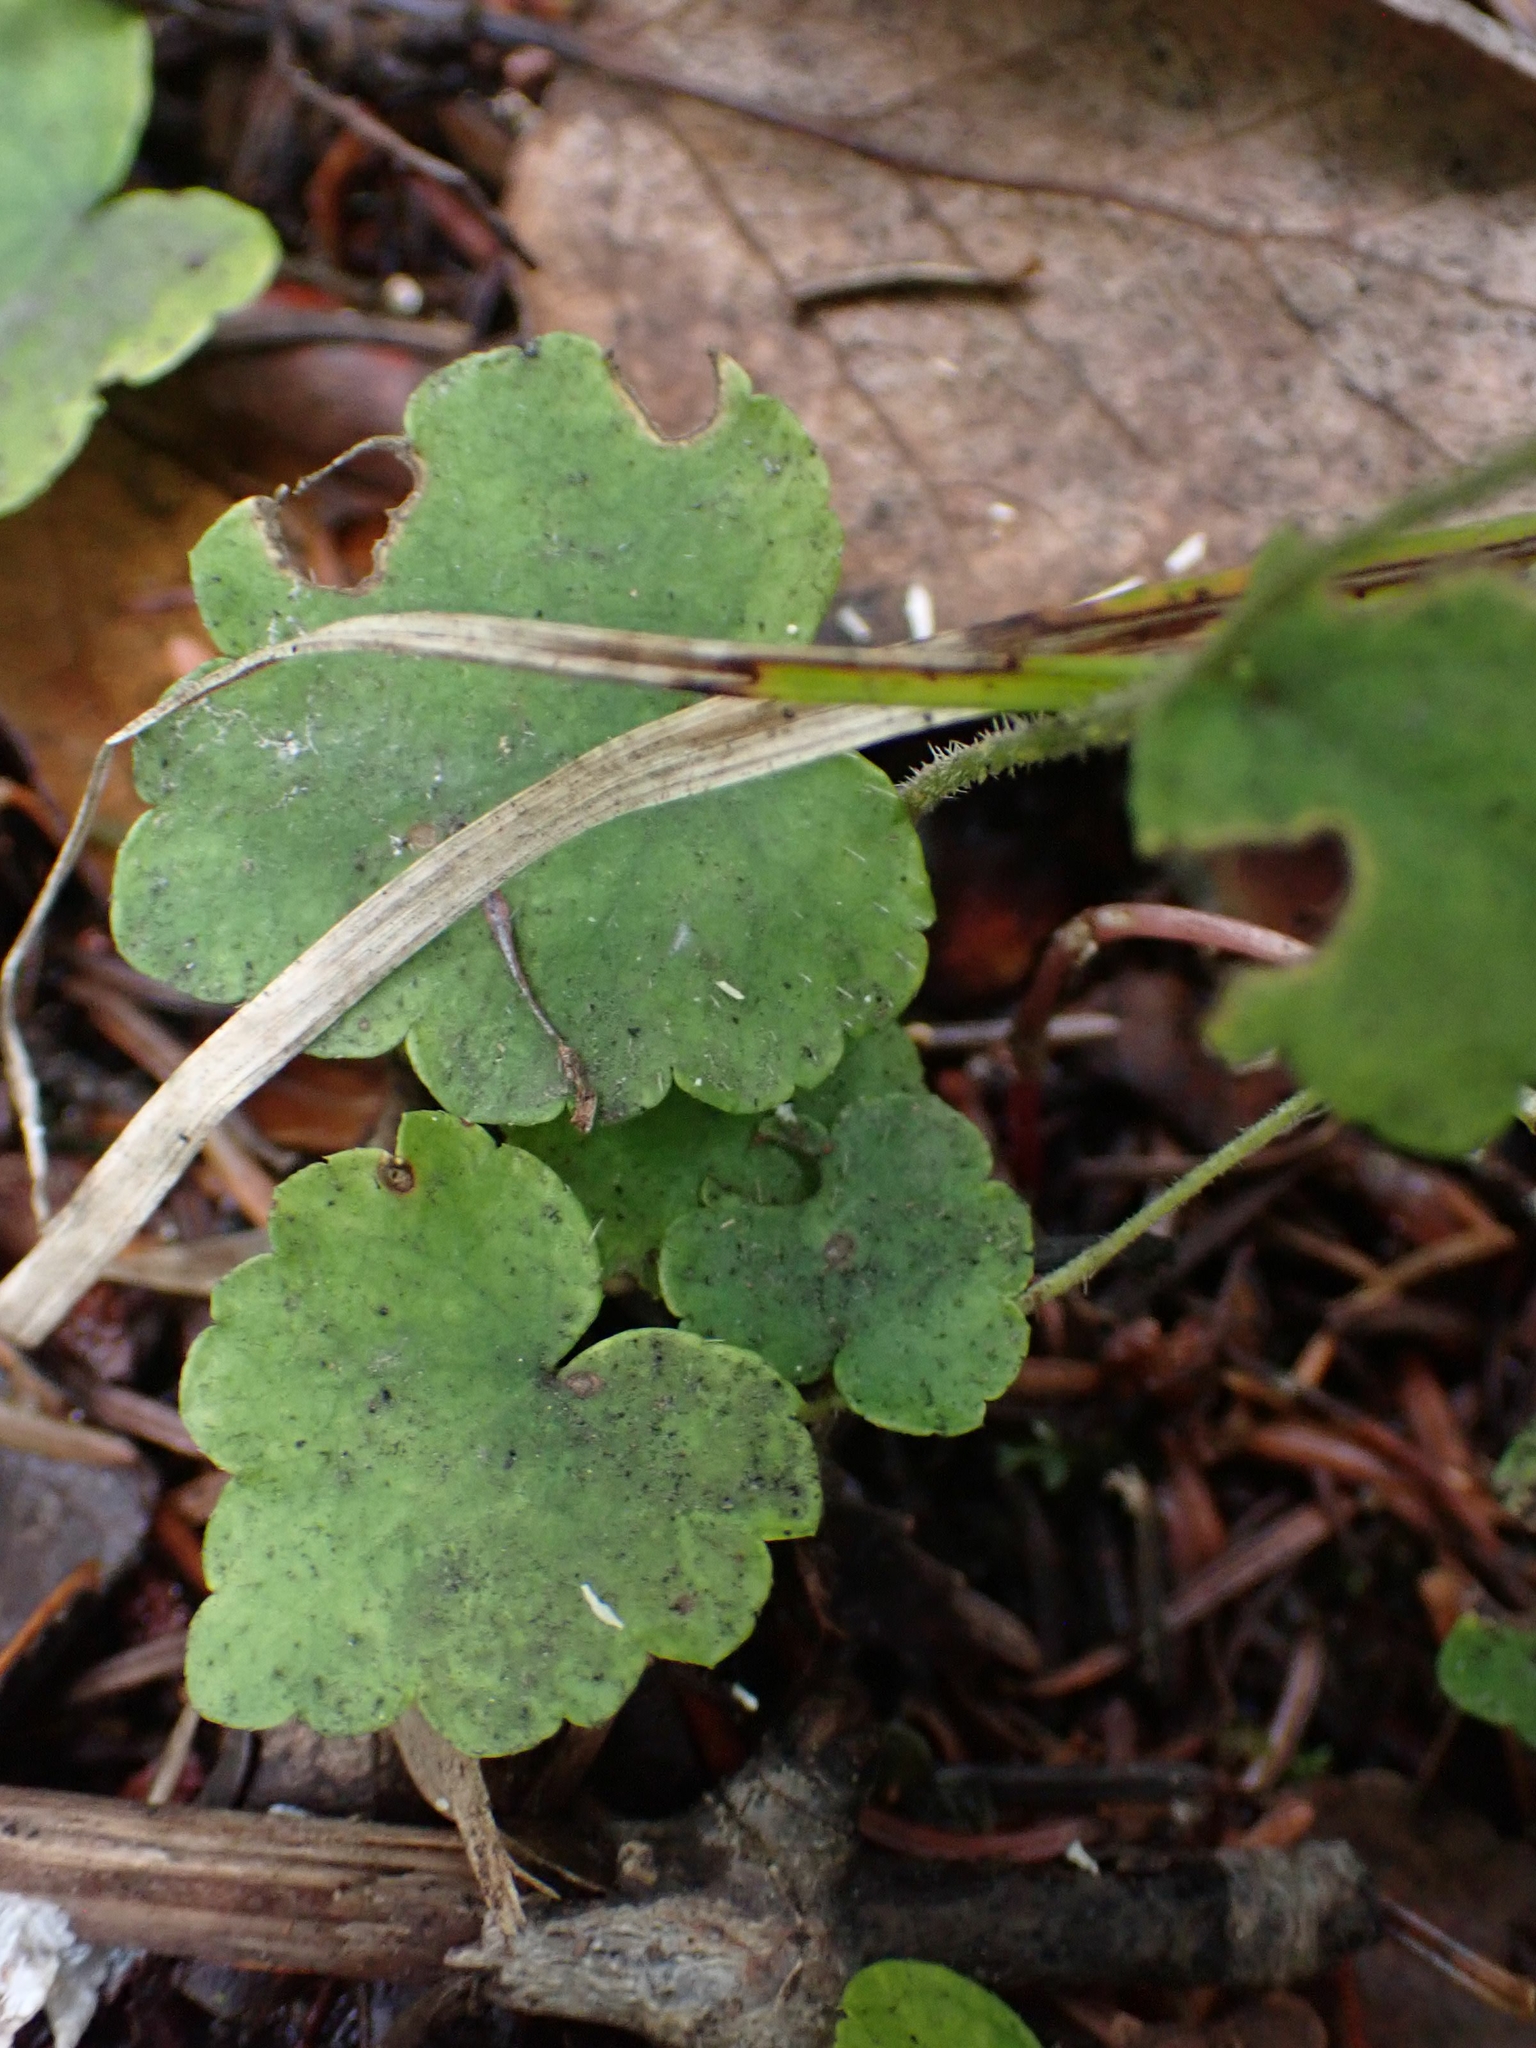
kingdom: Plantae
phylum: Tracheophyta
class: Magnoliopsida
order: Saxifragales
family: Saxifragaceae
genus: Mitella
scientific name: Mitella nuda
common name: Bare-stemmed bishop's-cap
